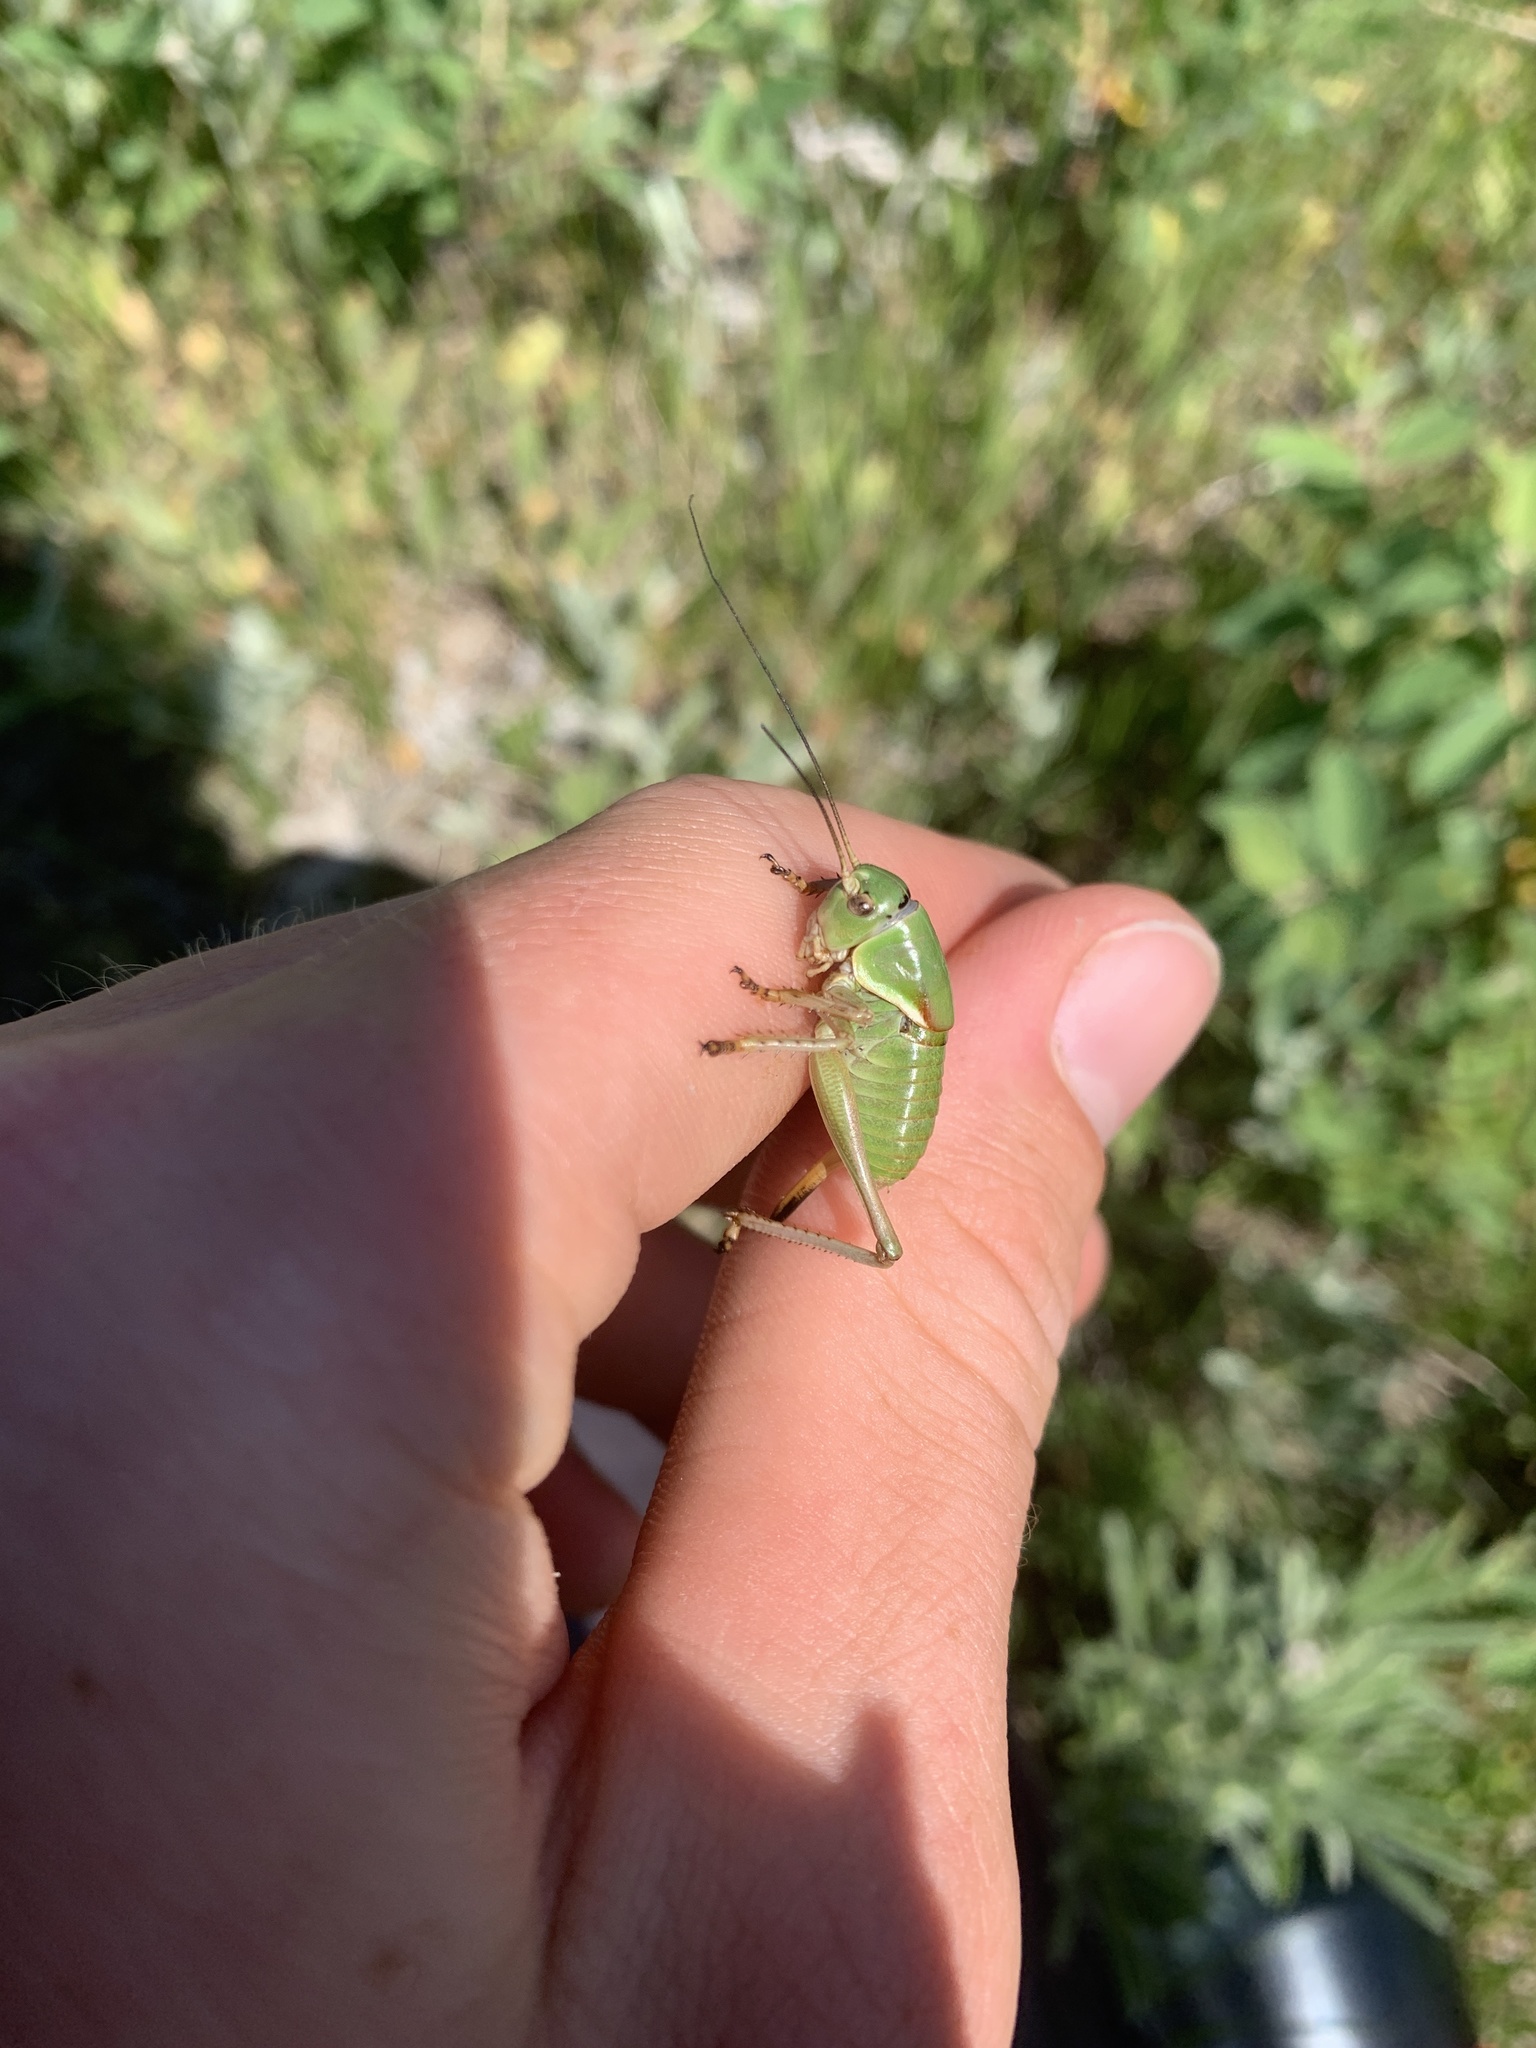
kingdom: Animalia
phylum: Arthropoda
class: Insecta
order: Orthoptera
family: Tettigoniidae
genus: Anabrus
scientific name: Anabrus simplex
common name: Mormon cricket
